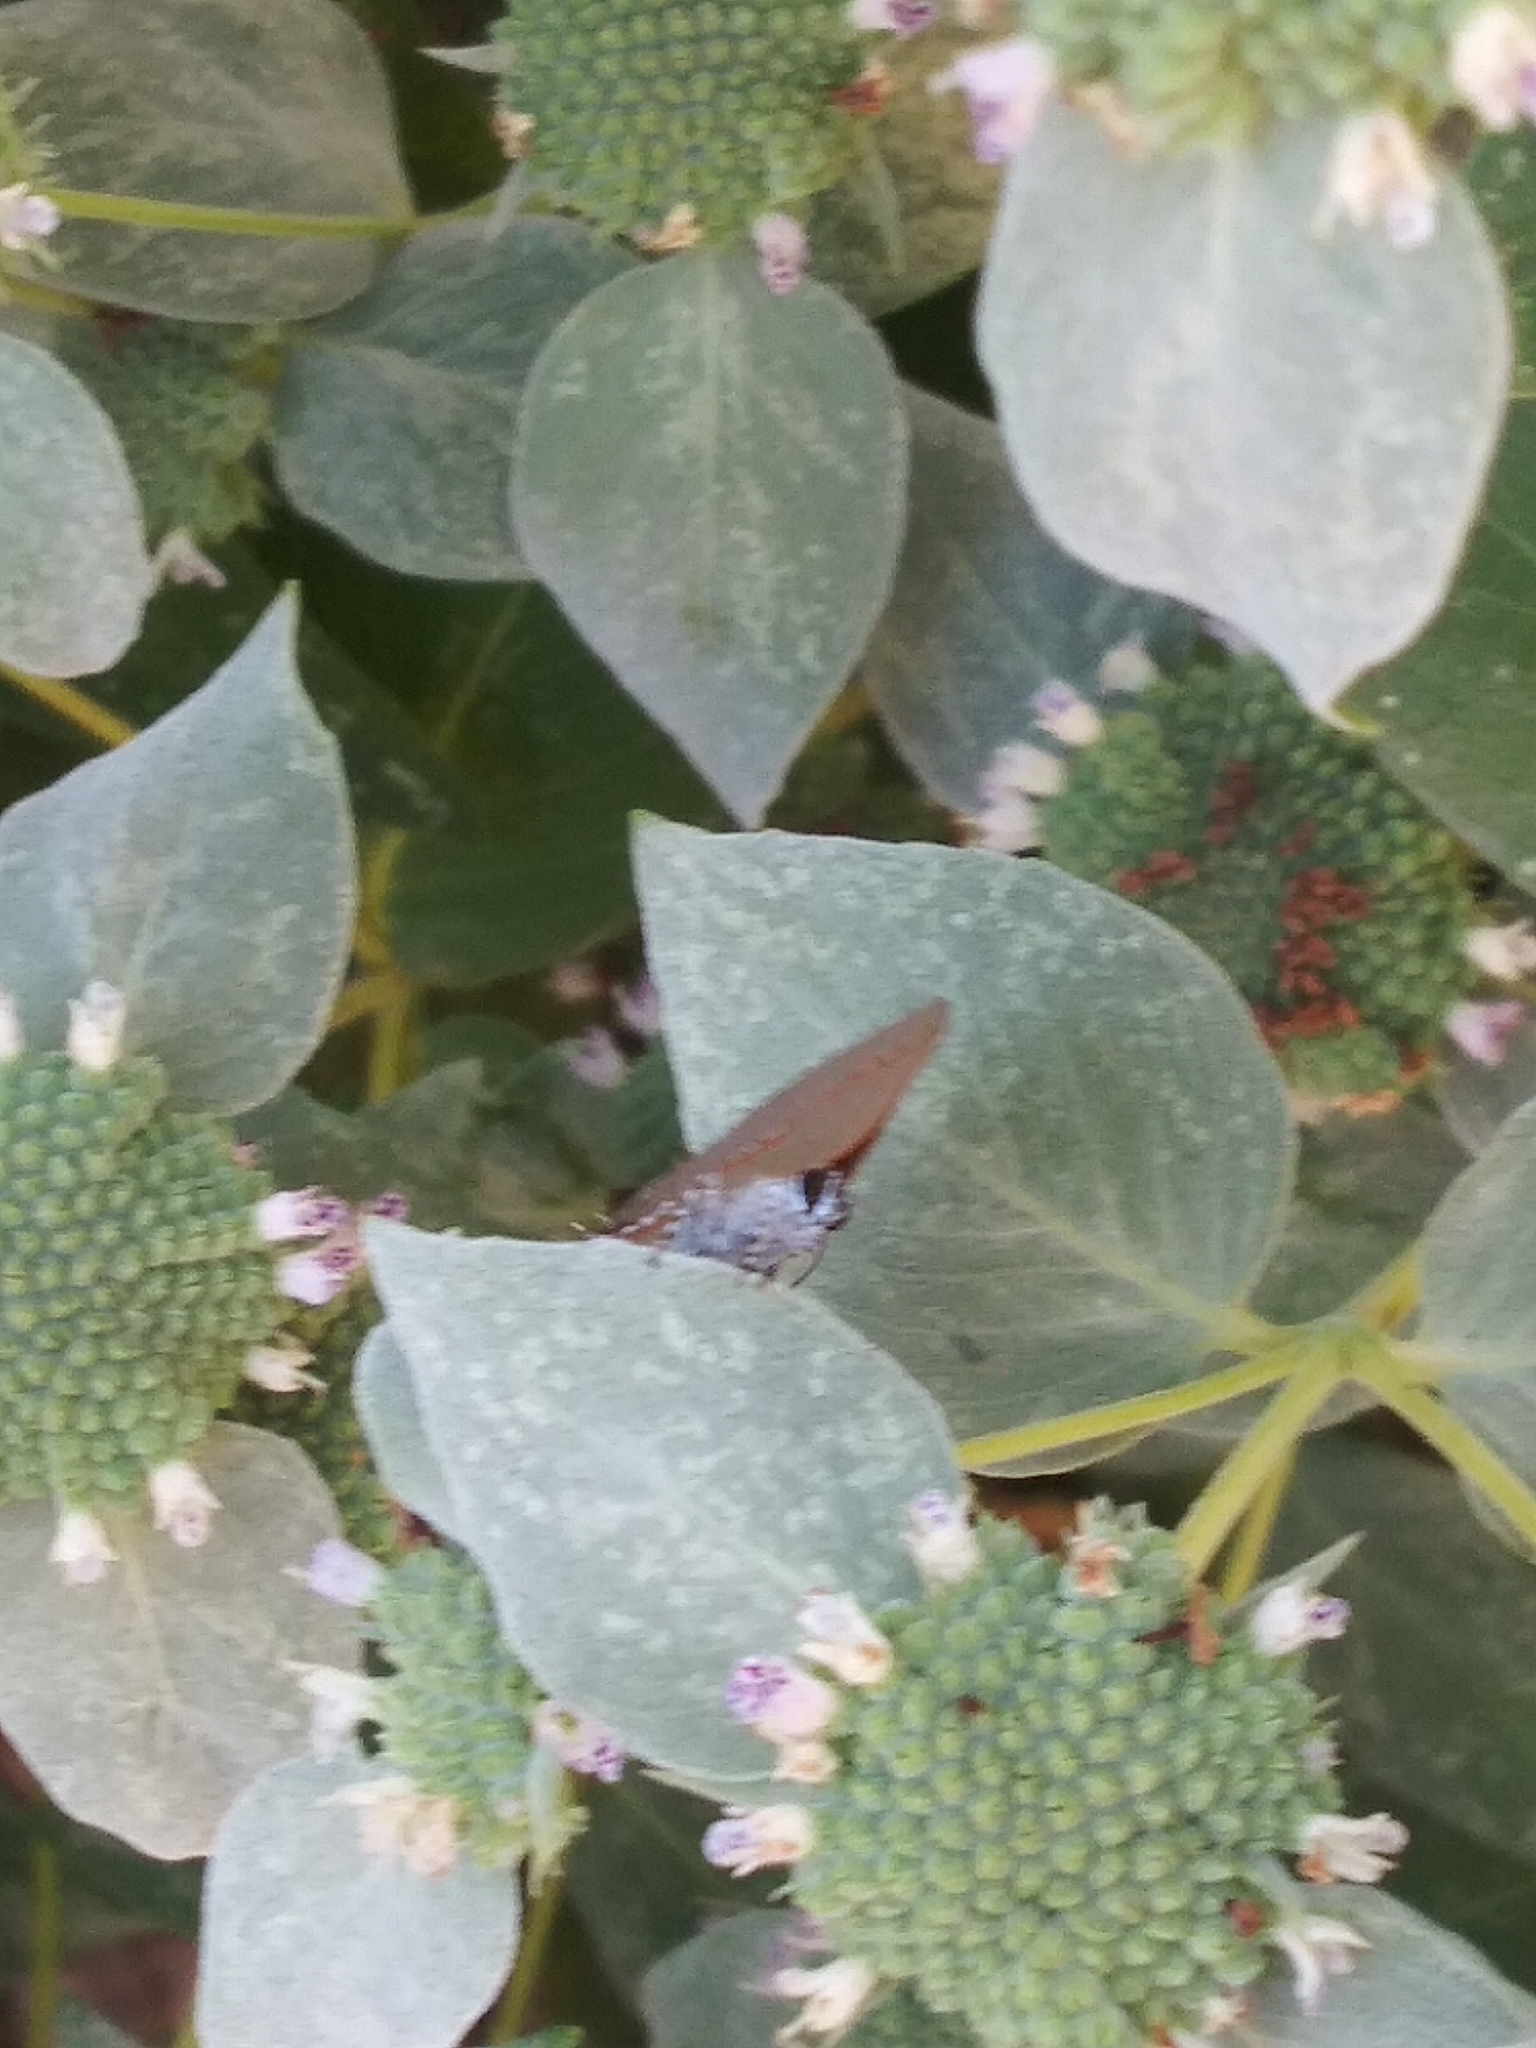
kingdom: Animalia
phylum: Arthropoda
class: Insecta
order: Lepidoptera
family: Lycaenidae
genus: Calycopis
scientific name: Calycopis cecrops
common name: Red-banded hairstreak
